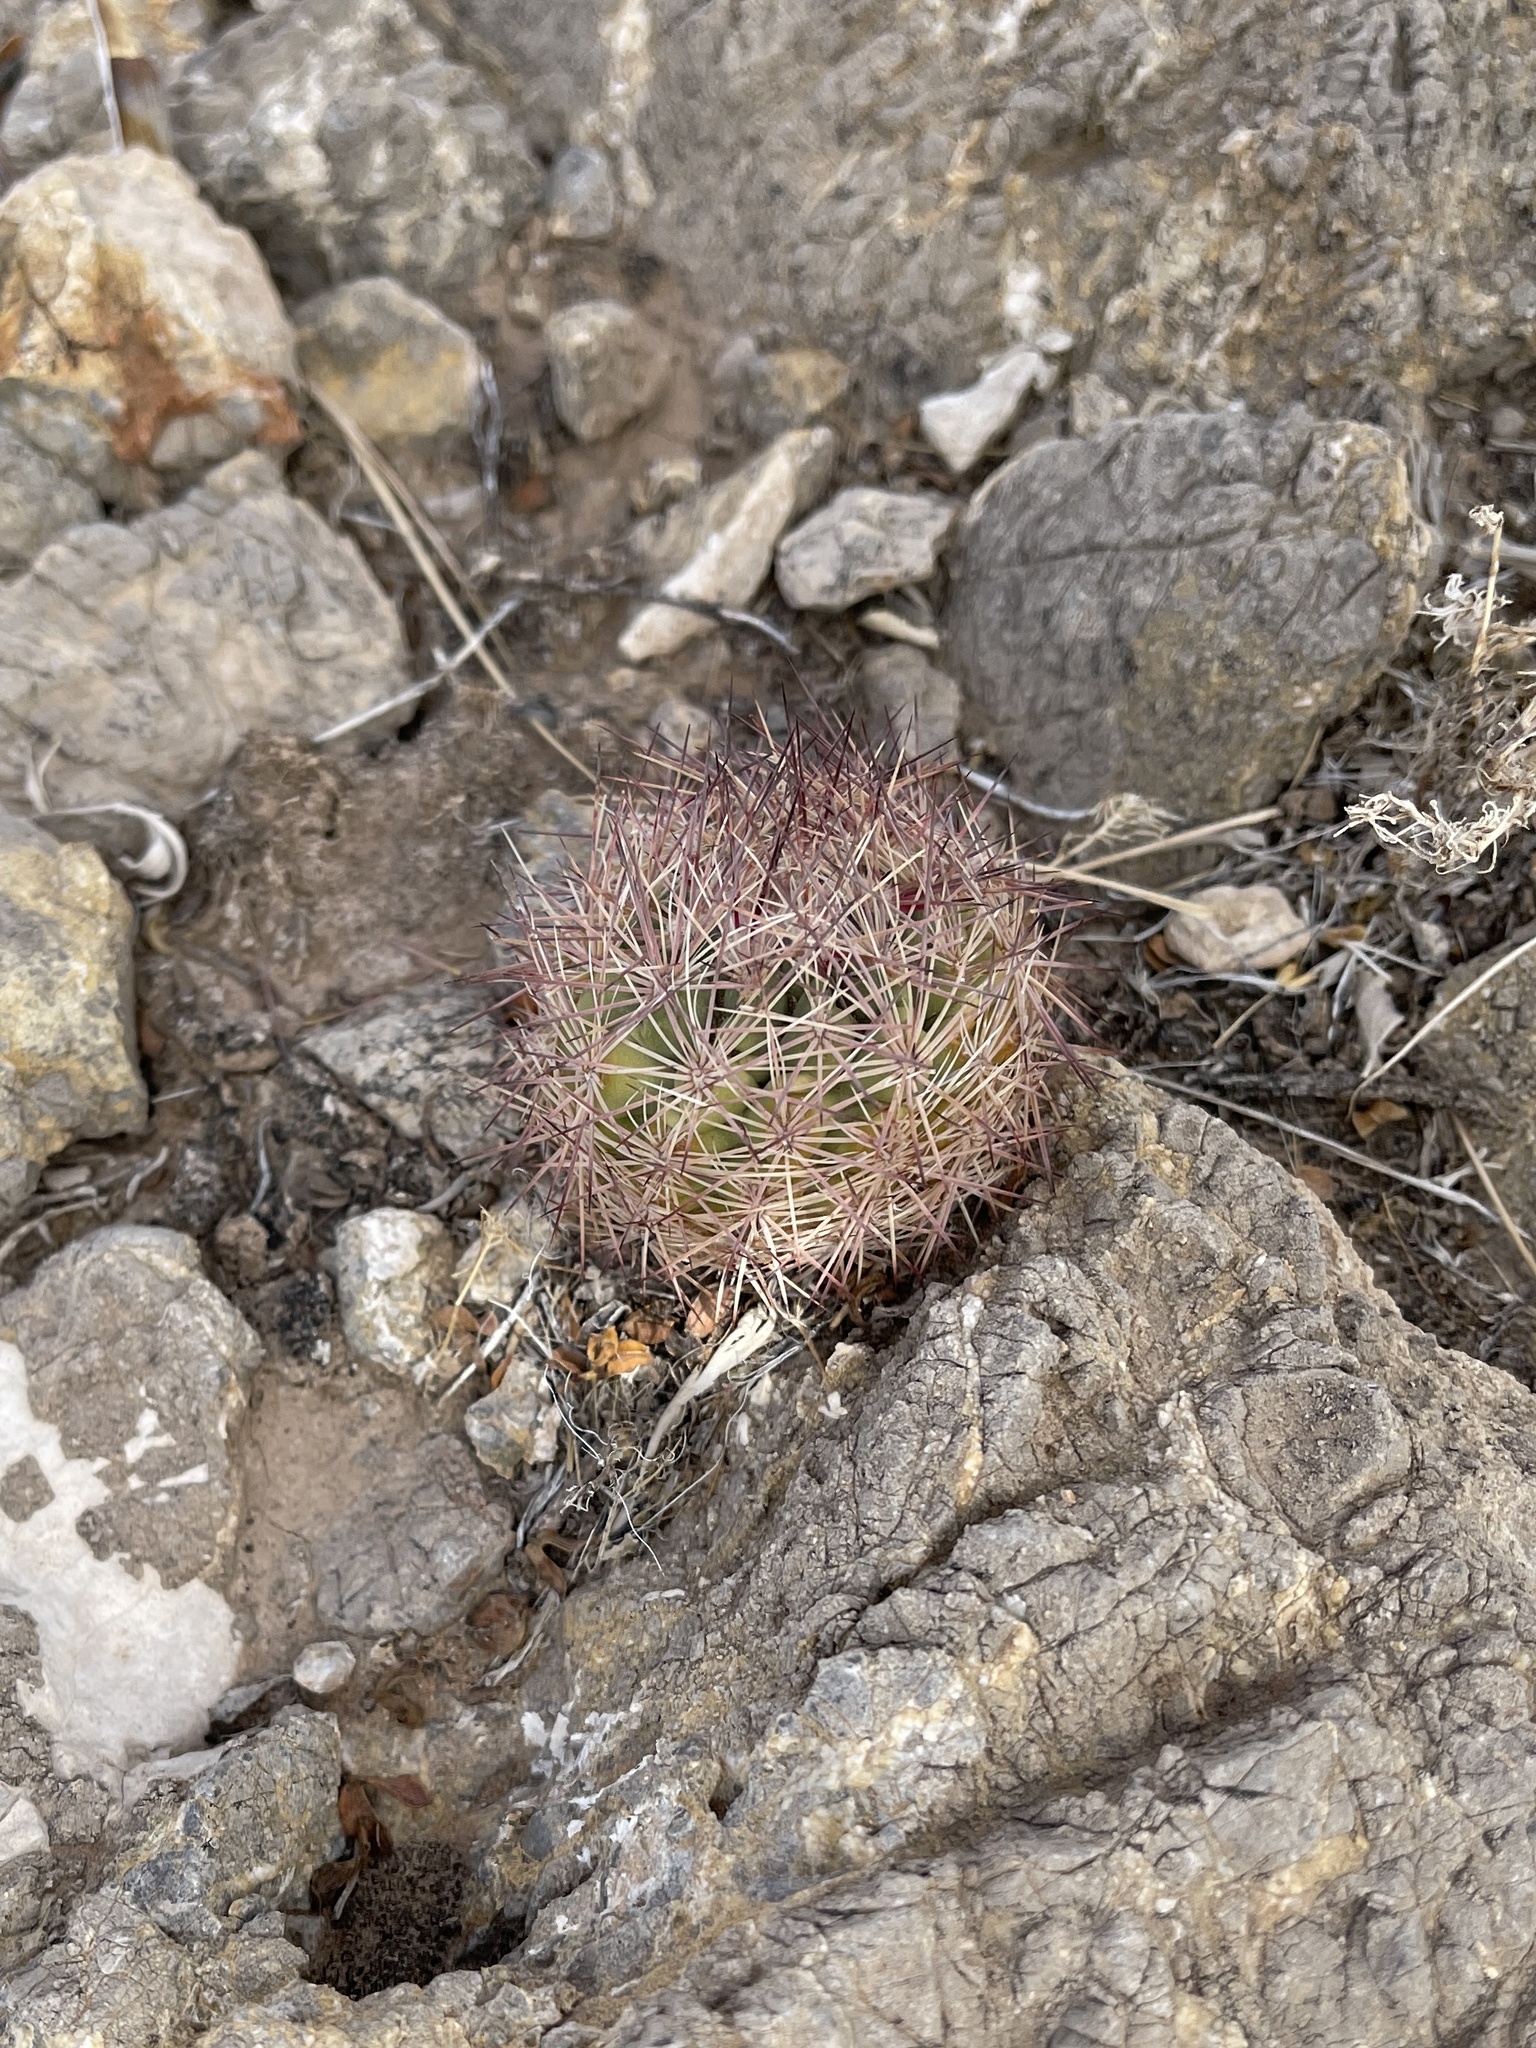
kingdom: Plantae
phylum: Tracheophyta
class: Magnoliopsida
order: Caryophyllales
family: Cactaceae
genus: Sclerocactus
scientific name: Sclerocactus intertextus
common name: White fish-hook cactus
